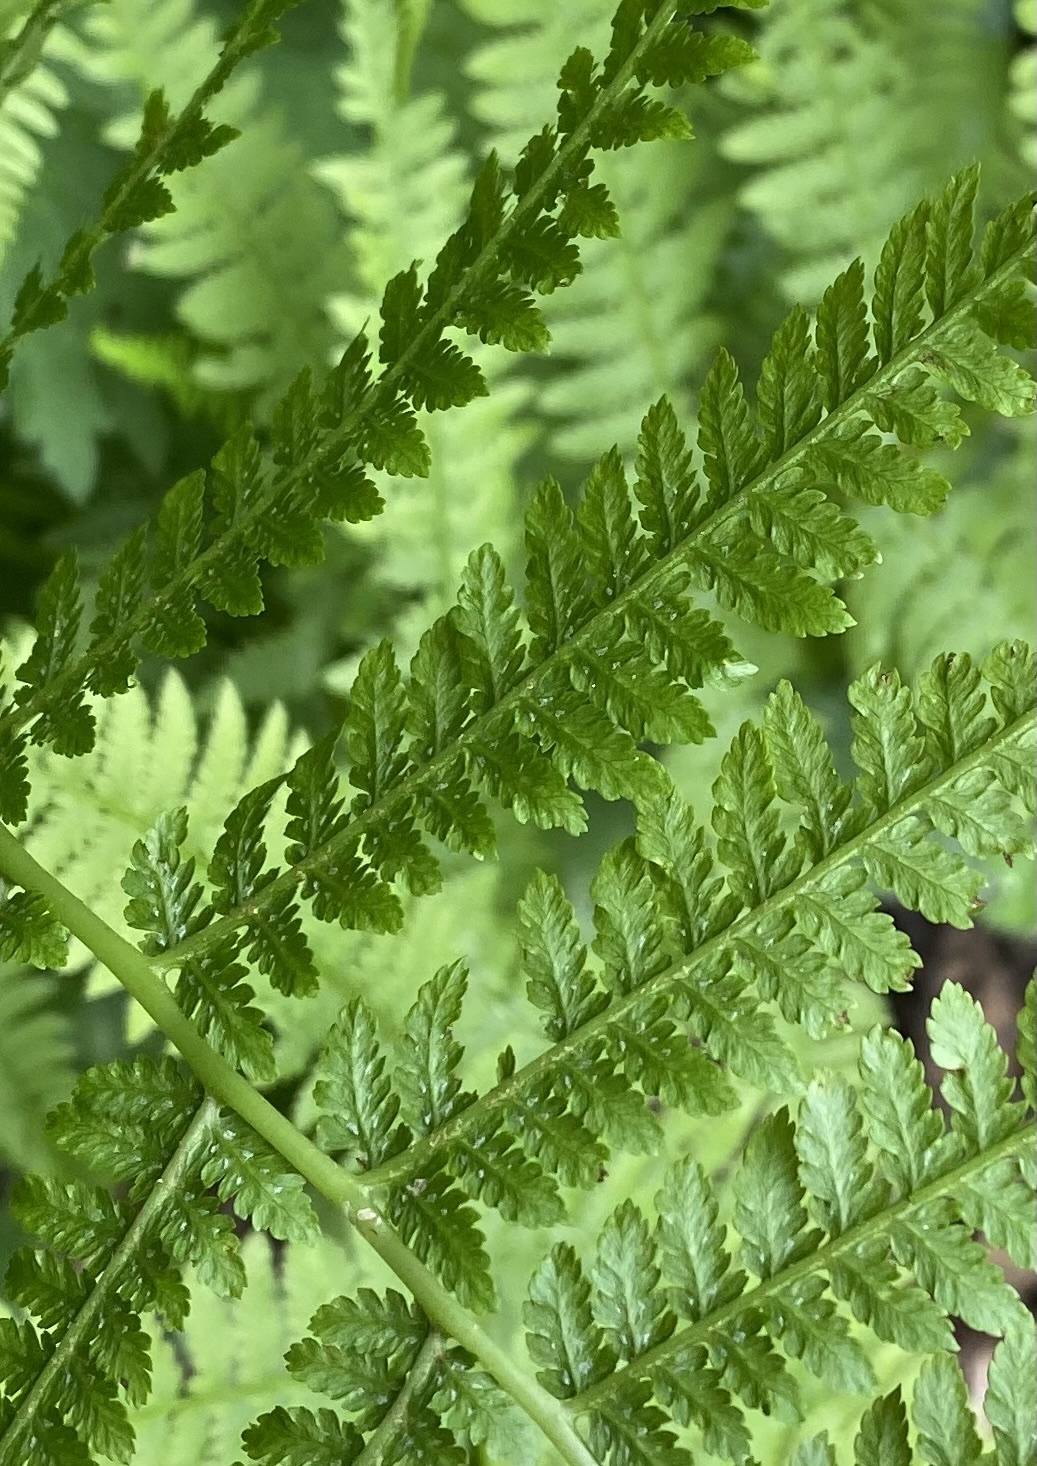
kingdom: Plantae
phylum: Tracheophyta
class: Polypodiopsida
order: Polypodiales
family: Athyriaceae
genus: Athyrium
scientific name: Athyrium filix-femina
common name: Lady fern
